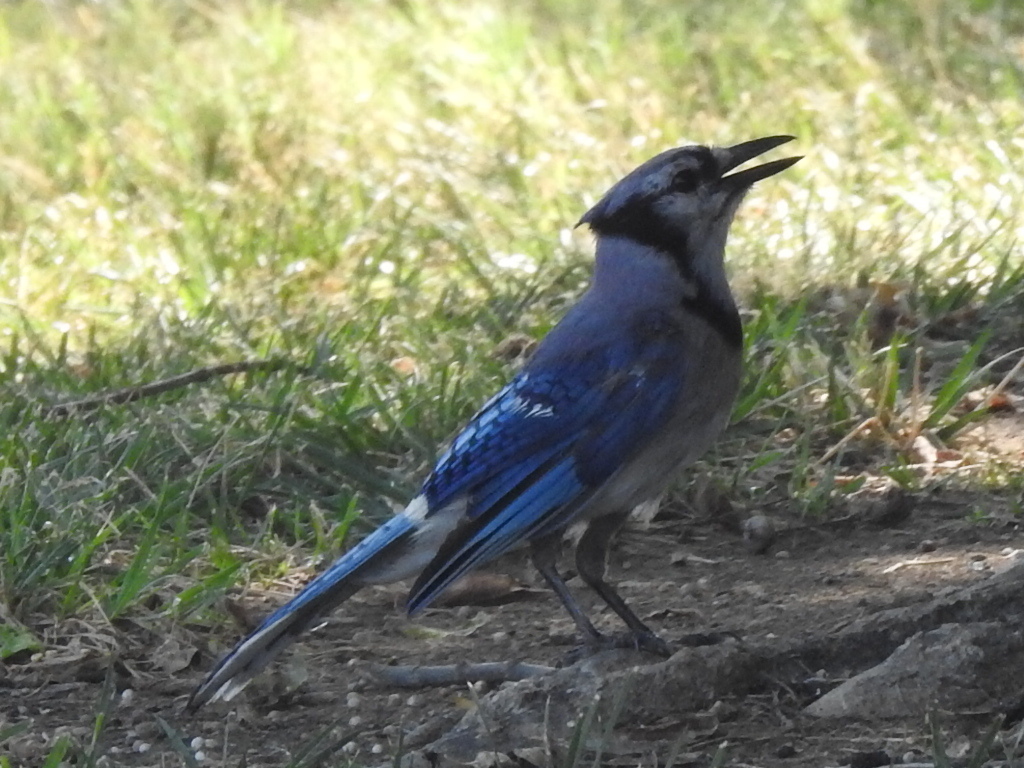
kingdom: Animalia
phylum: Chordata
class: Aves
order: Passeriformes
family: Corvidae
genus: Cyanocitta
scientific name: Cyanocitta cristata
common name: Blue jay
